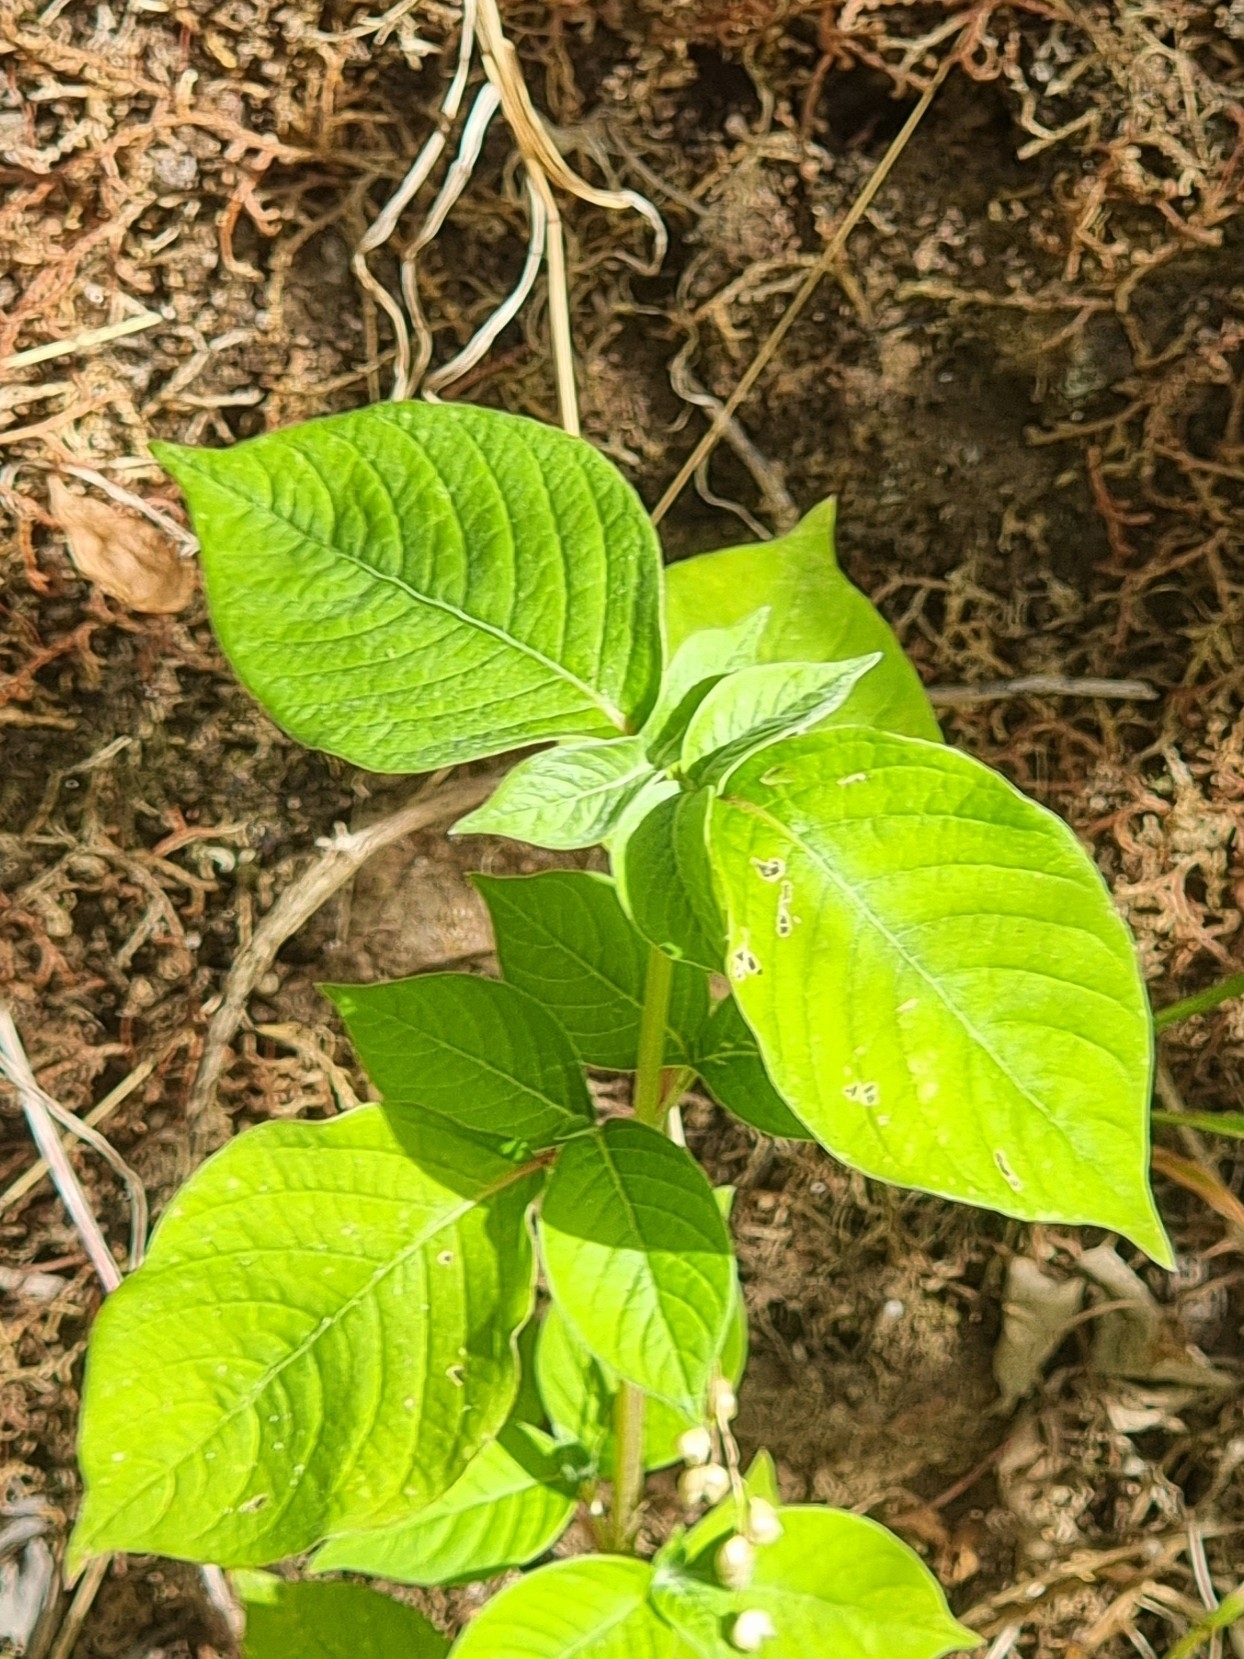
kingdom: Plantae
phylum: Tracheophyta
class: Magnoliopsida
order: Caryophyllales
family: Amaranthaceae
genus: Achyranthes
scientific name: Achyranthes aspera
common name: Devil's horsewhip
